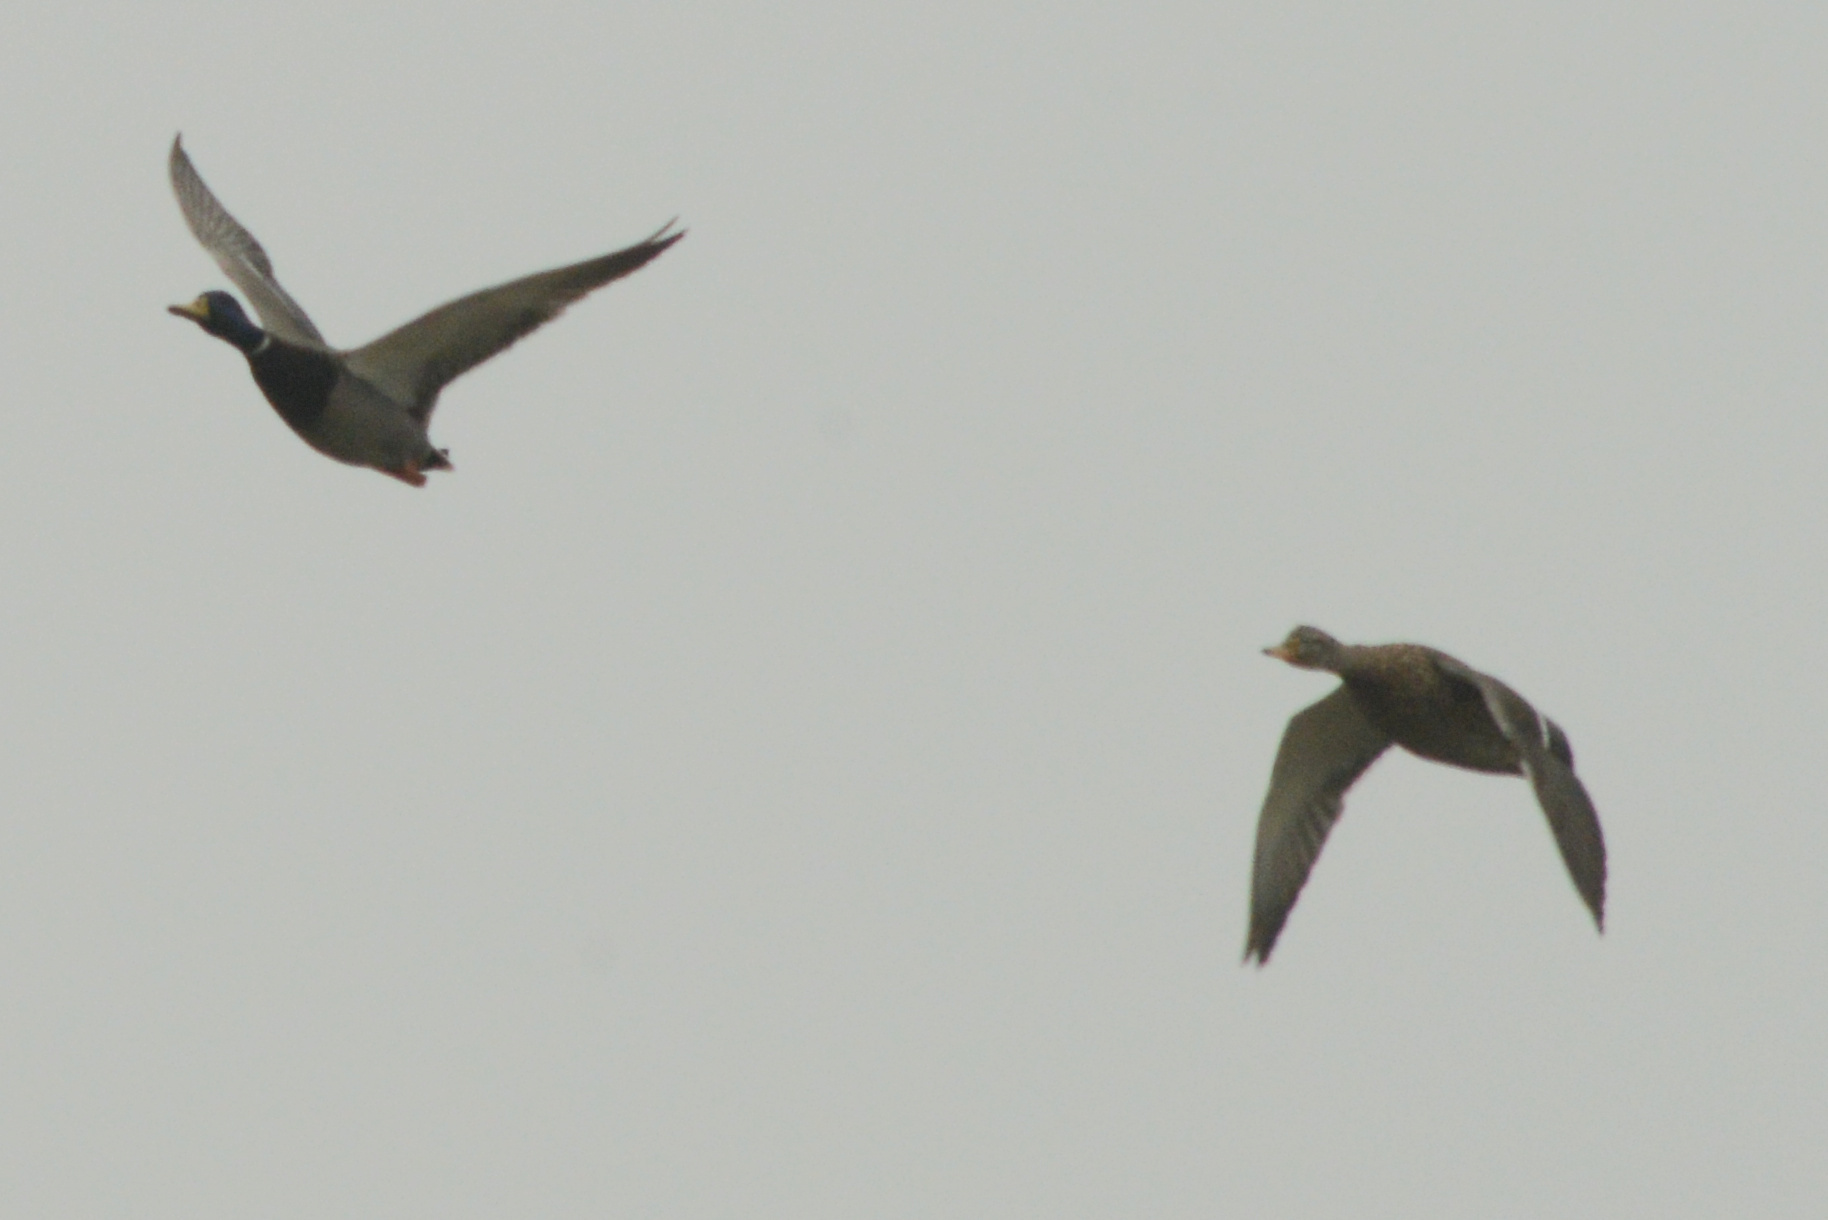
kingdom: Animalia
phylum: Chordata
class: Aves
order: Anseriformes
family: Anatidae
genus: Anas
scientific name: Anas platyrhynchos
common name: Mallard
